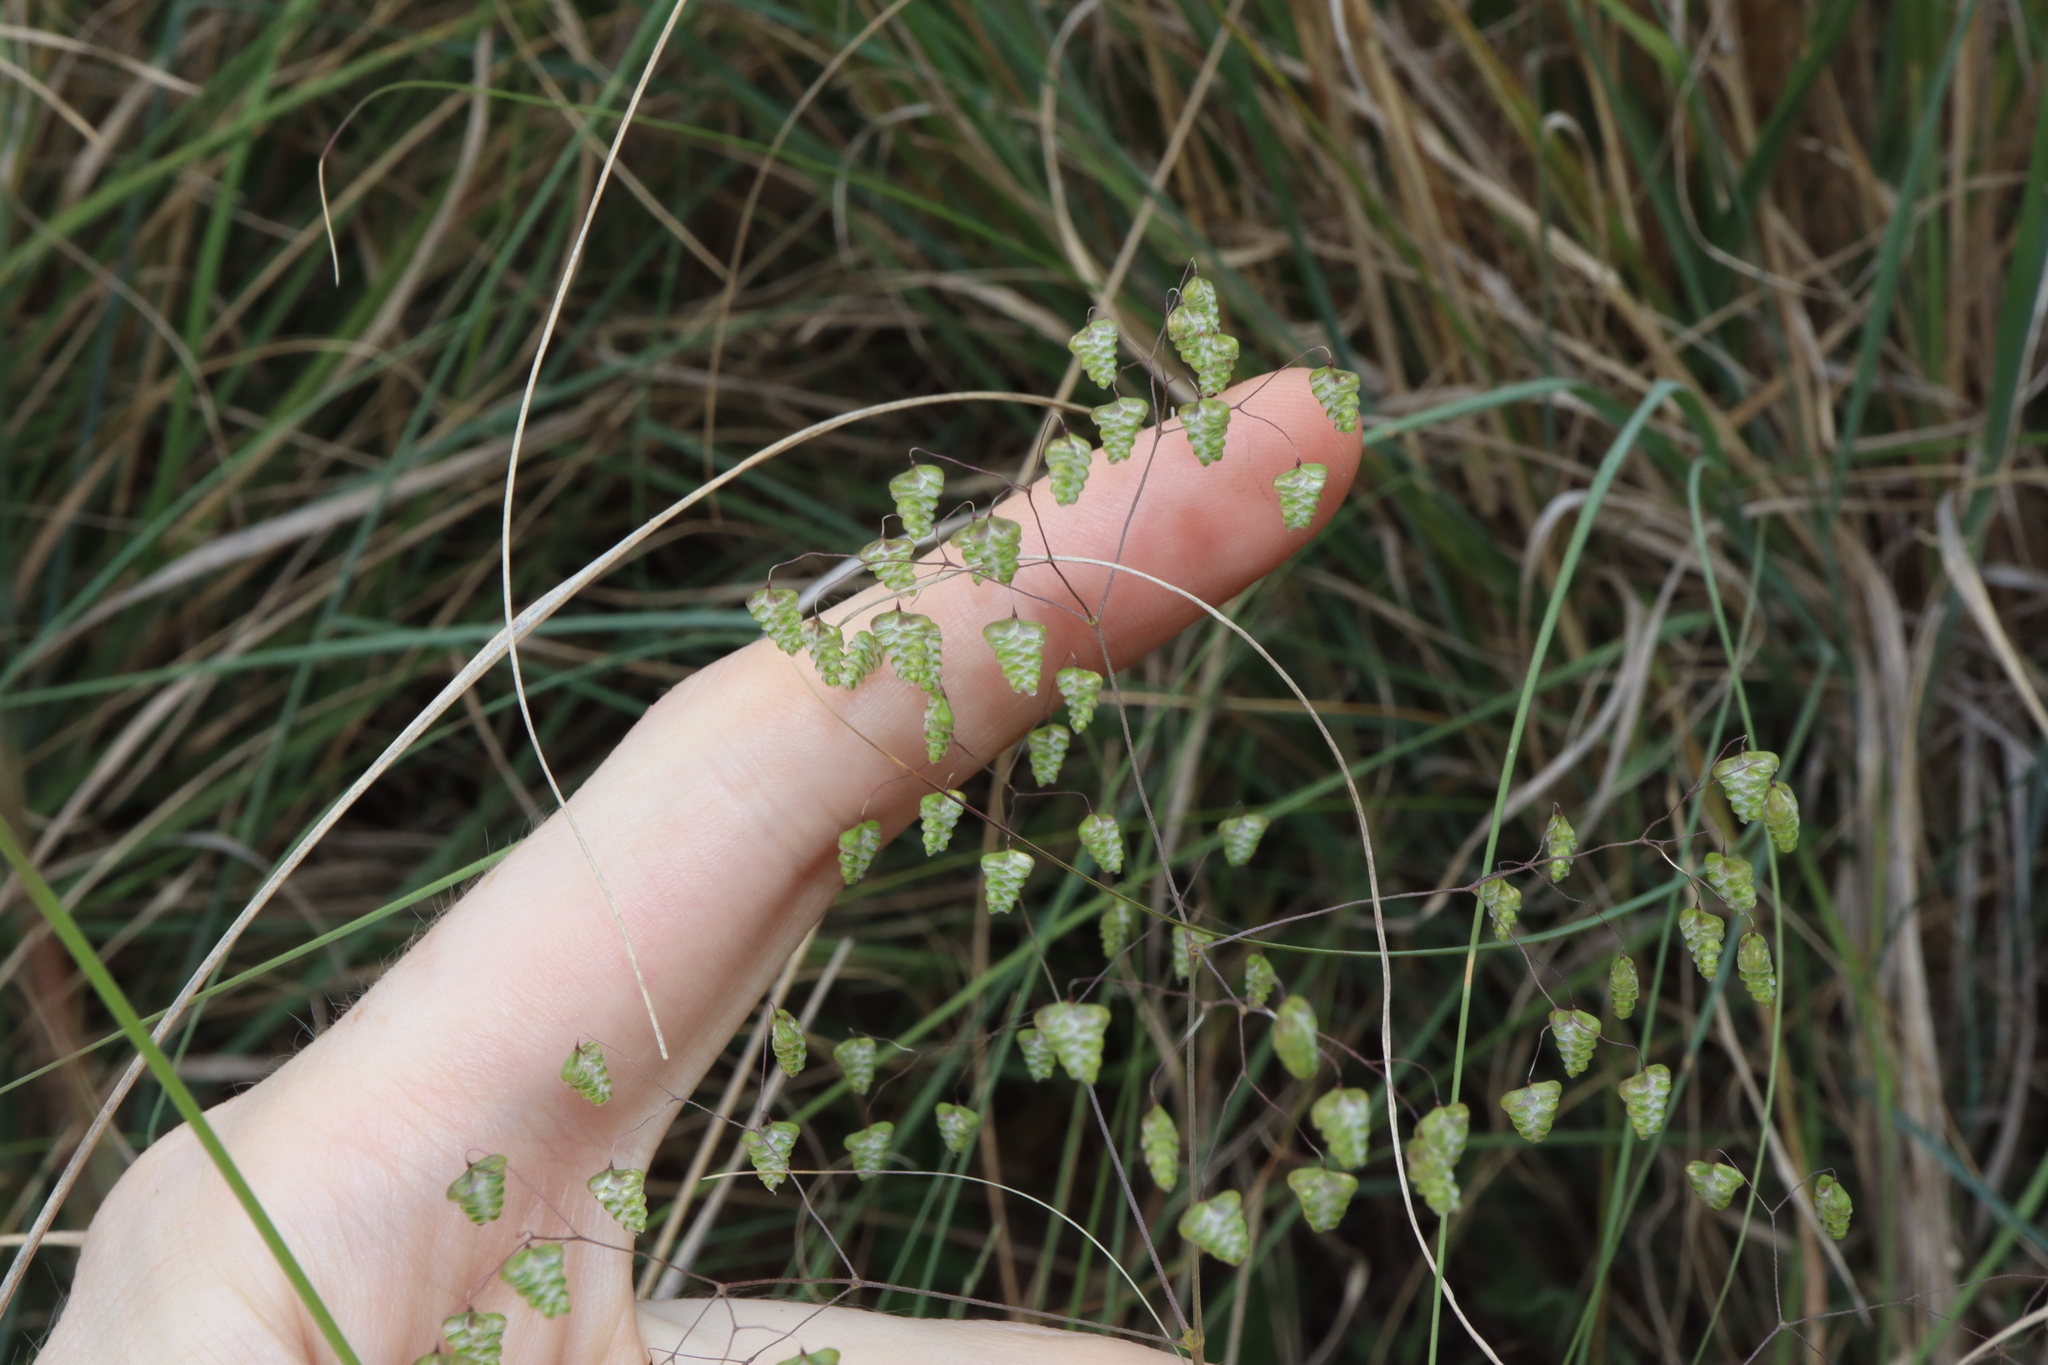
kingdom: Plantae
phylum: Tracheophyta
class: Liliopsida
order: Poales
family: Poaceae
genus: Briza
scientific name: Briza minor
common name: Lesser quaking-grass
